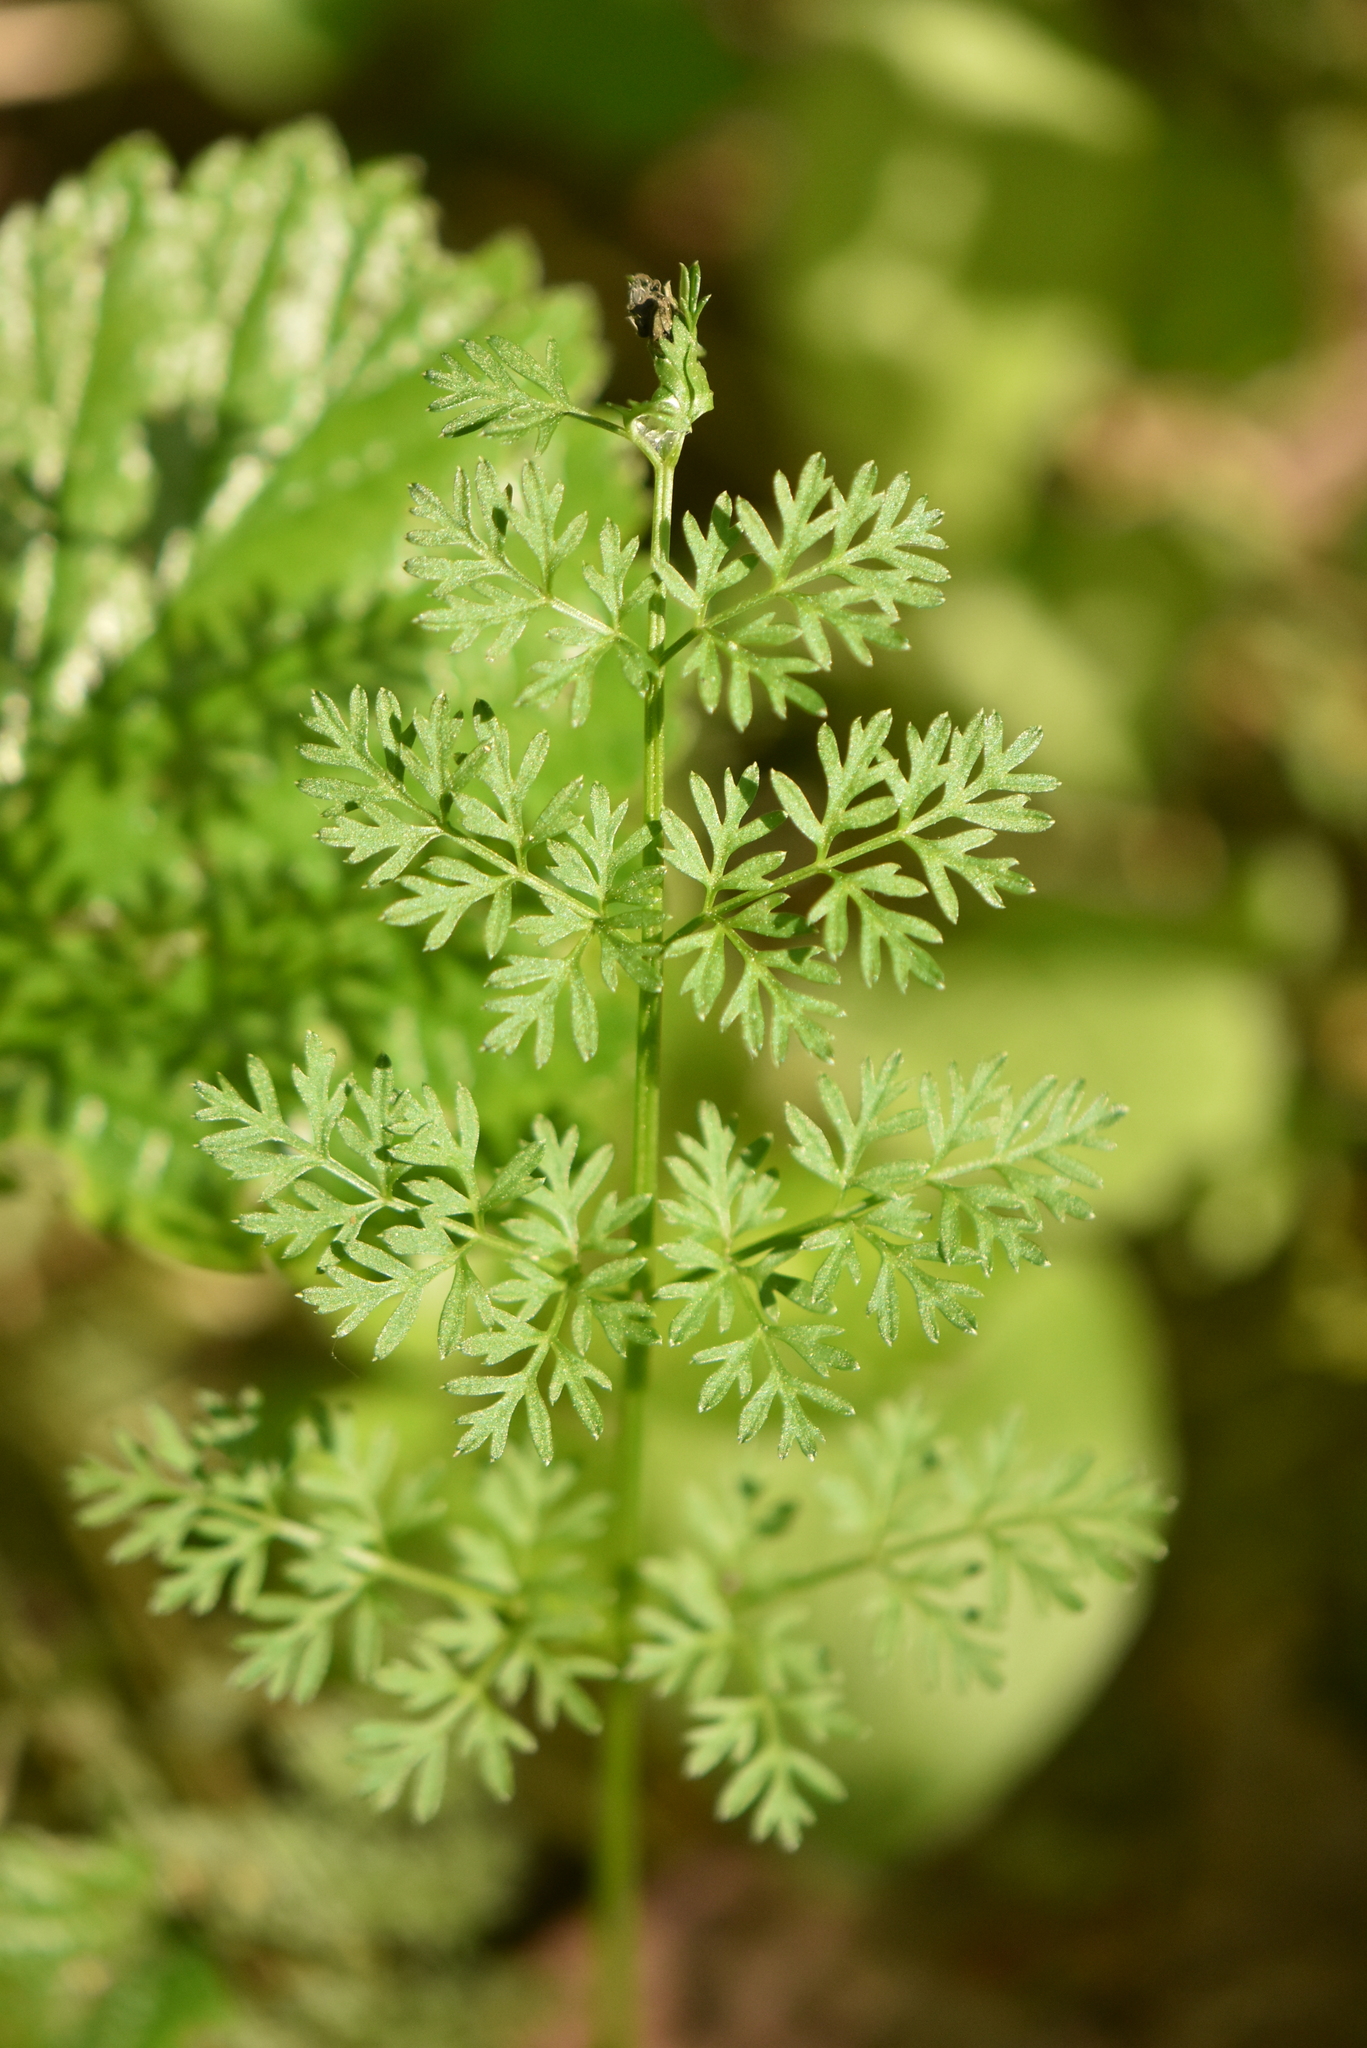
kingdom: Plantae
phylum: Tracheophyta
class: Magnoliopsida
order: Apiales
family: Apiaceae
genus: Selinum
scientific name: Selinum carvifolia
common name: Cambridge milk-parsley
